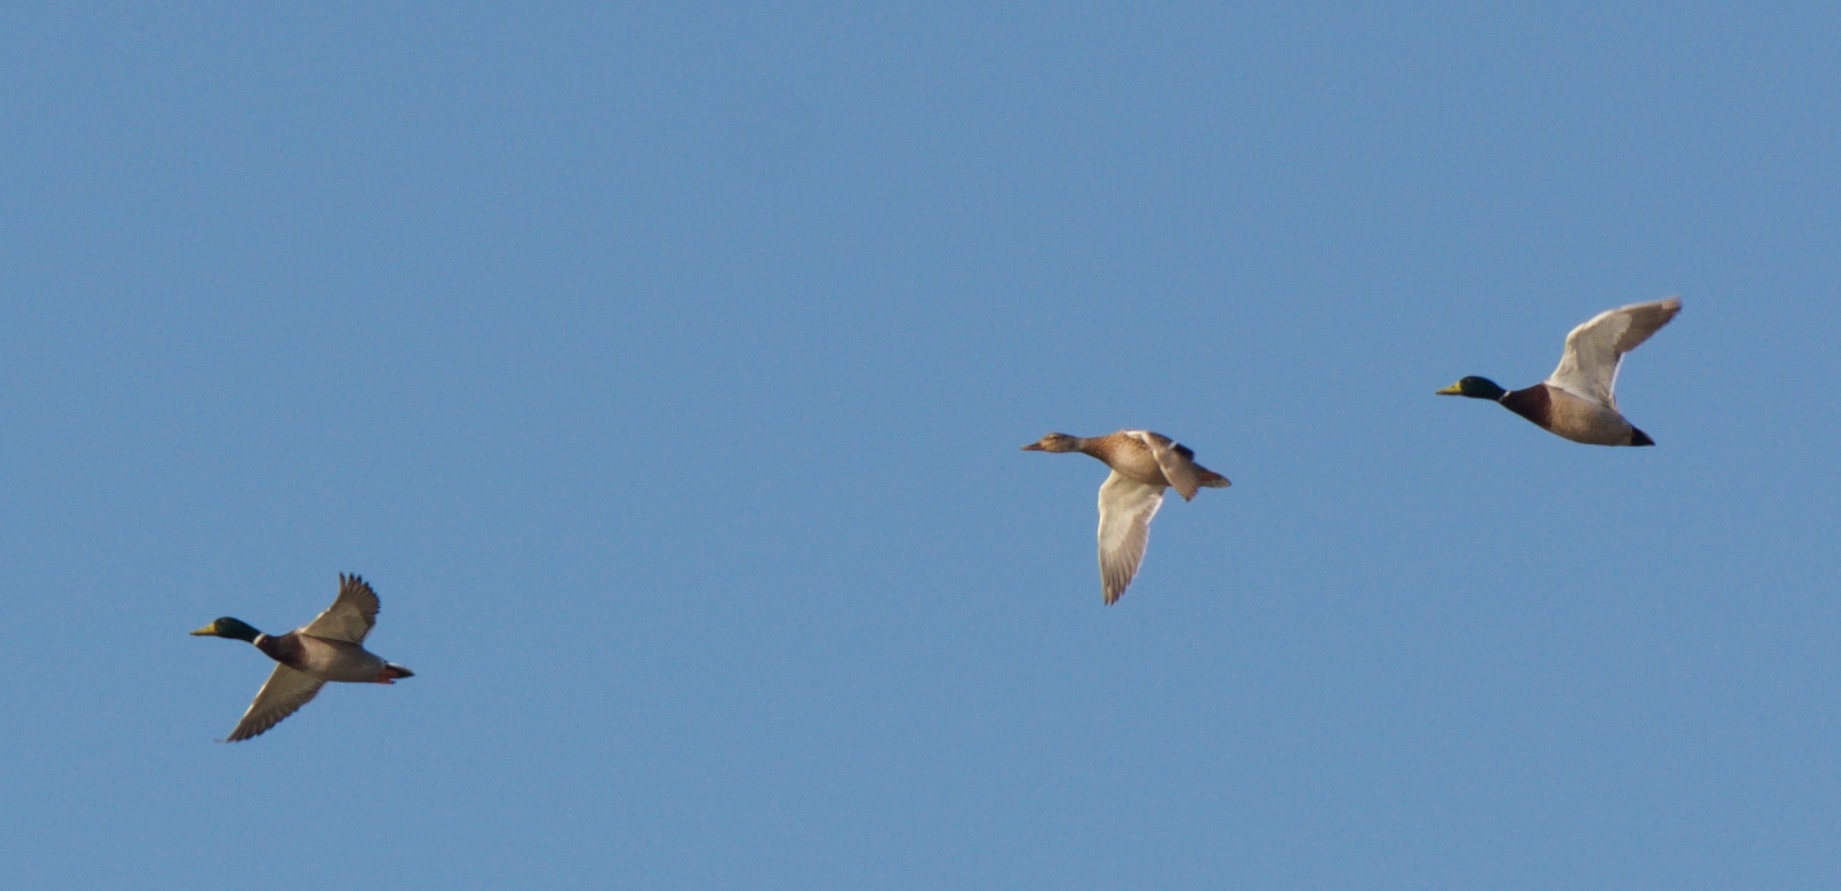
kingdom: Animalia
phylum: Chordata
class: Aves
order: Anseriformes
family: Anatidae
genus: Anas
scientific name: Anas platyrhynchos
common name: Mallard
